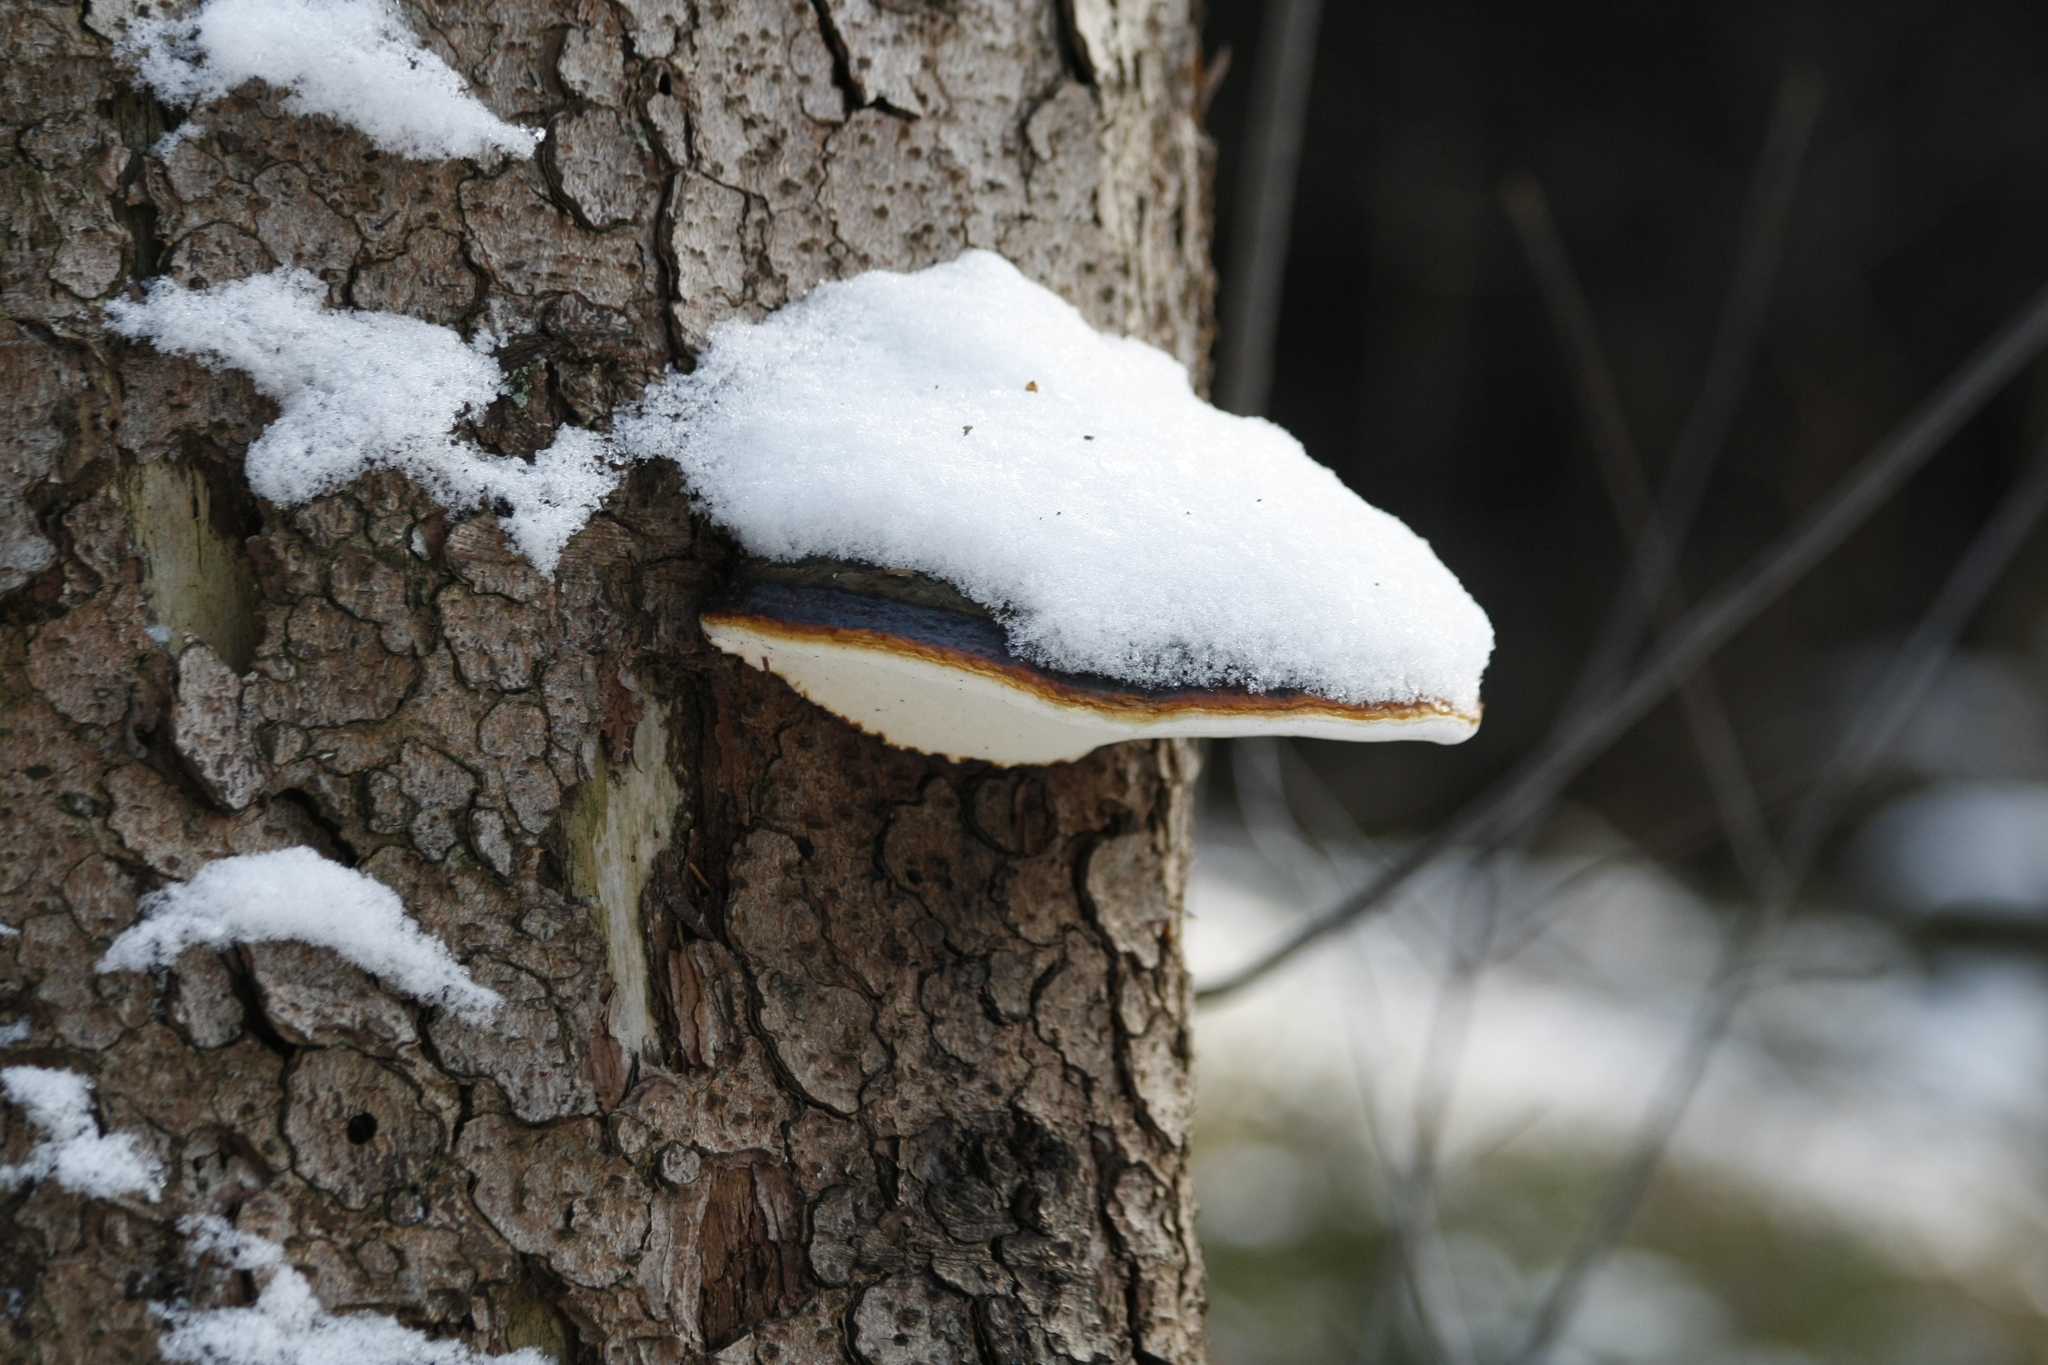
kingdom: Fungi
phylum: Basidiomycota
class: Agaricomycetes
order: Polyporales
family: Fomitopsidaceae
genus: Fomitopsis
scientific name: Fomitopsis pinicola
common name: Red-belted bracket
